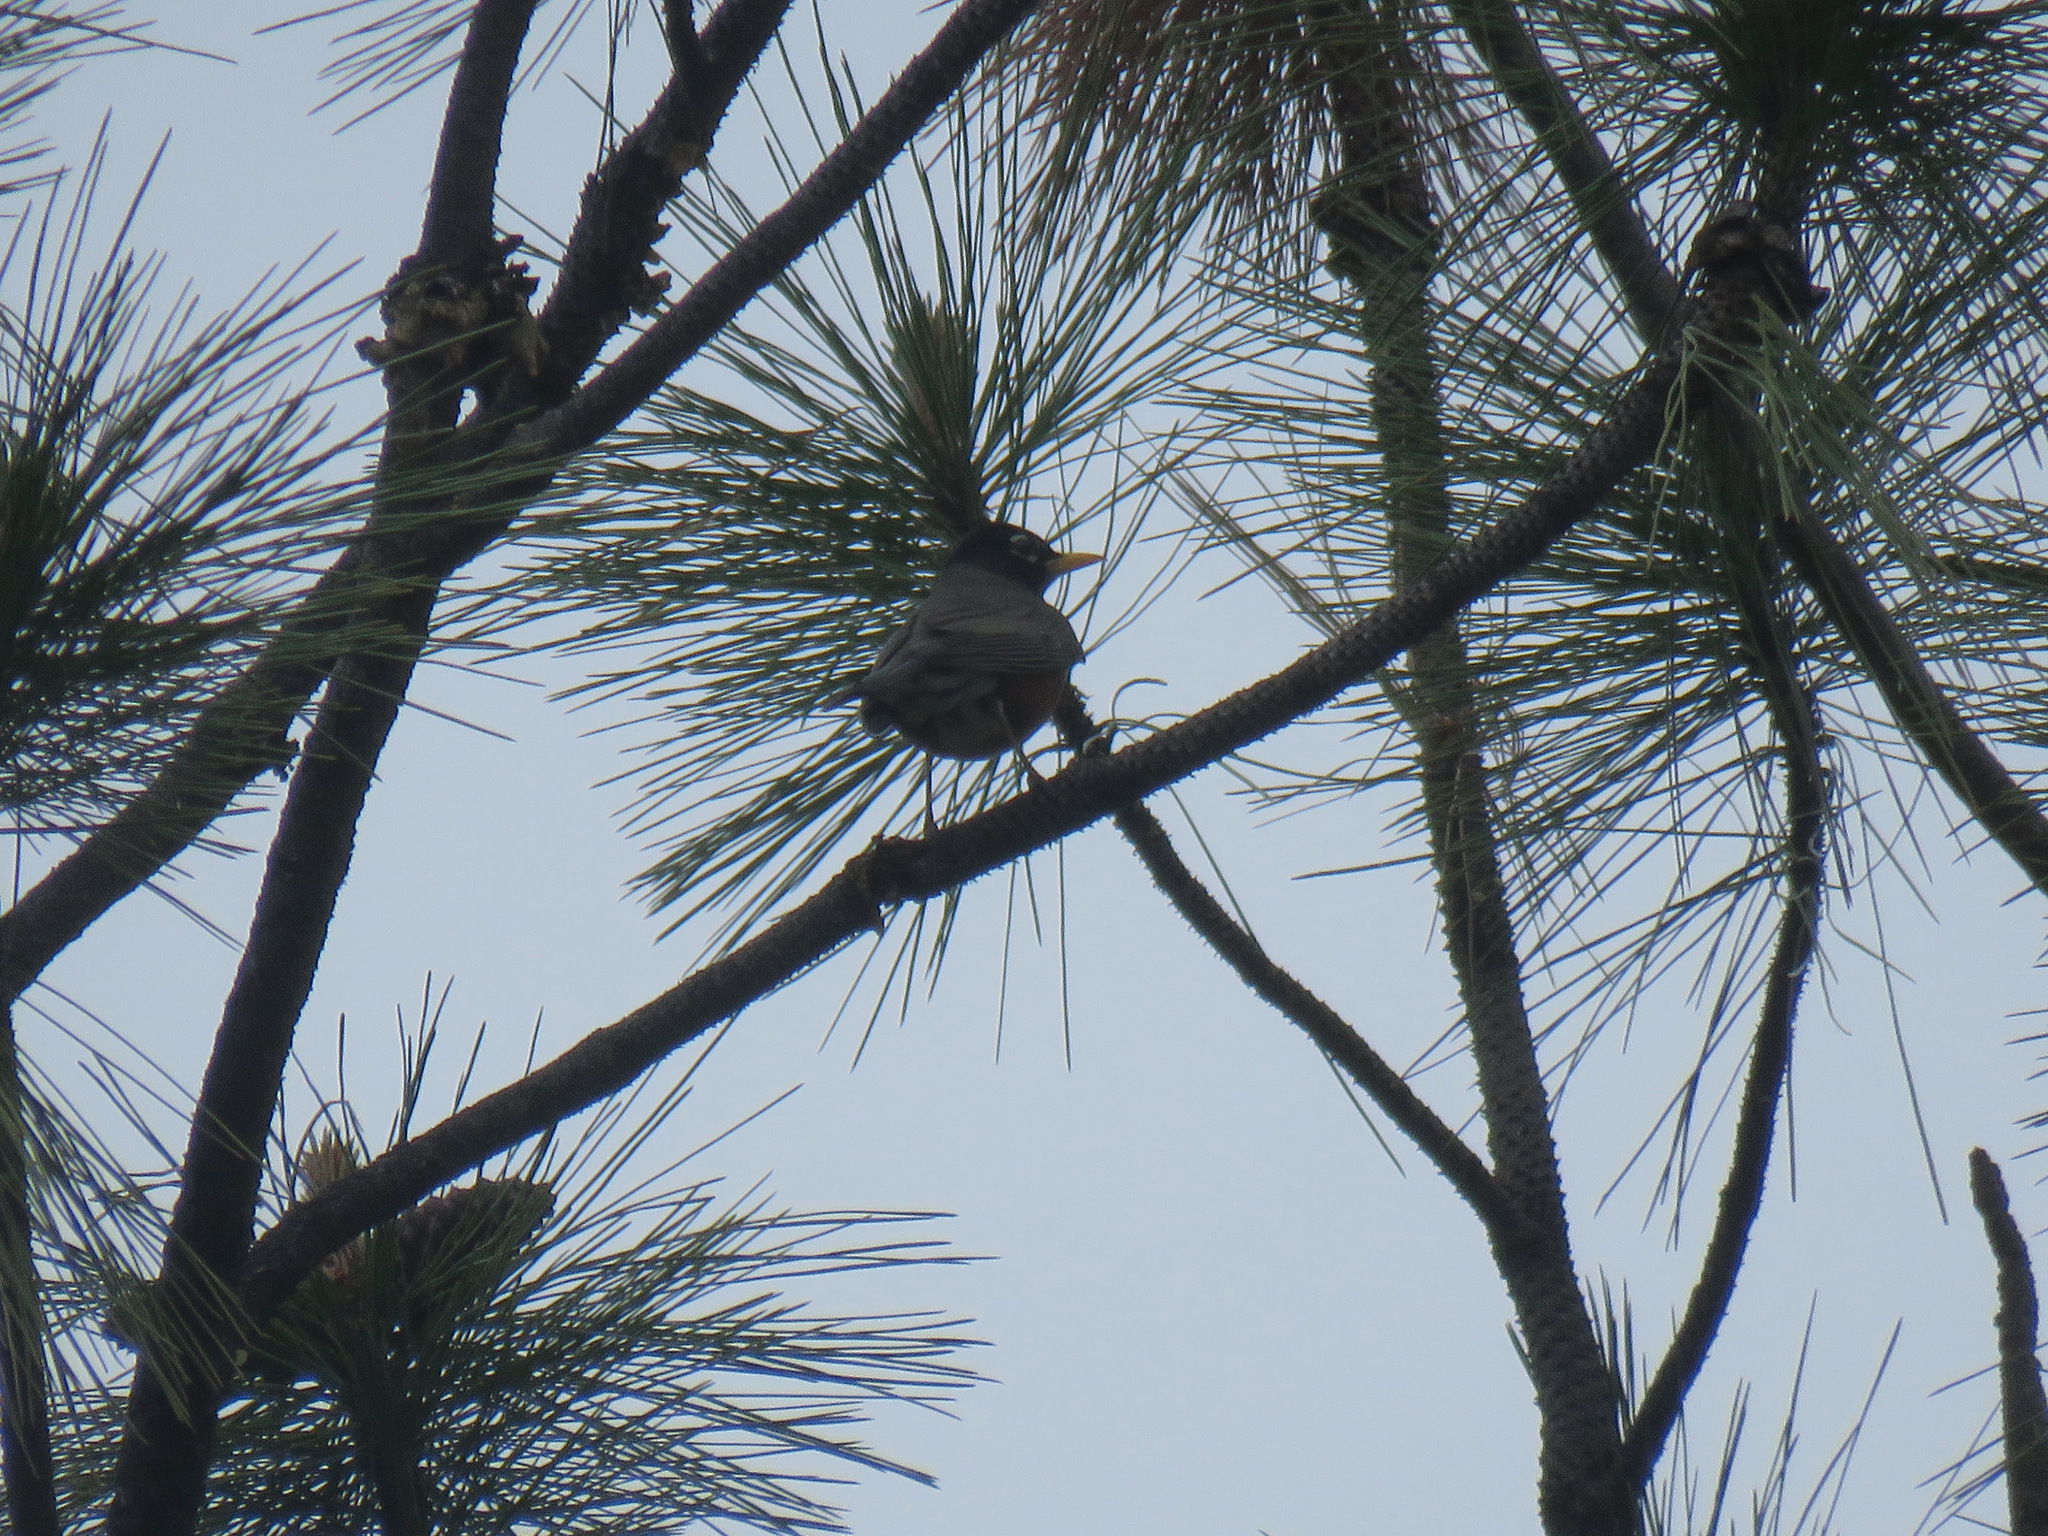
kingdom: Animalia
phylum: Chordata
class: Aves
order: Passeriformes
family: Turdidae
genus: Turdus
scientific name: Turdus migratorius
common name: American robin
